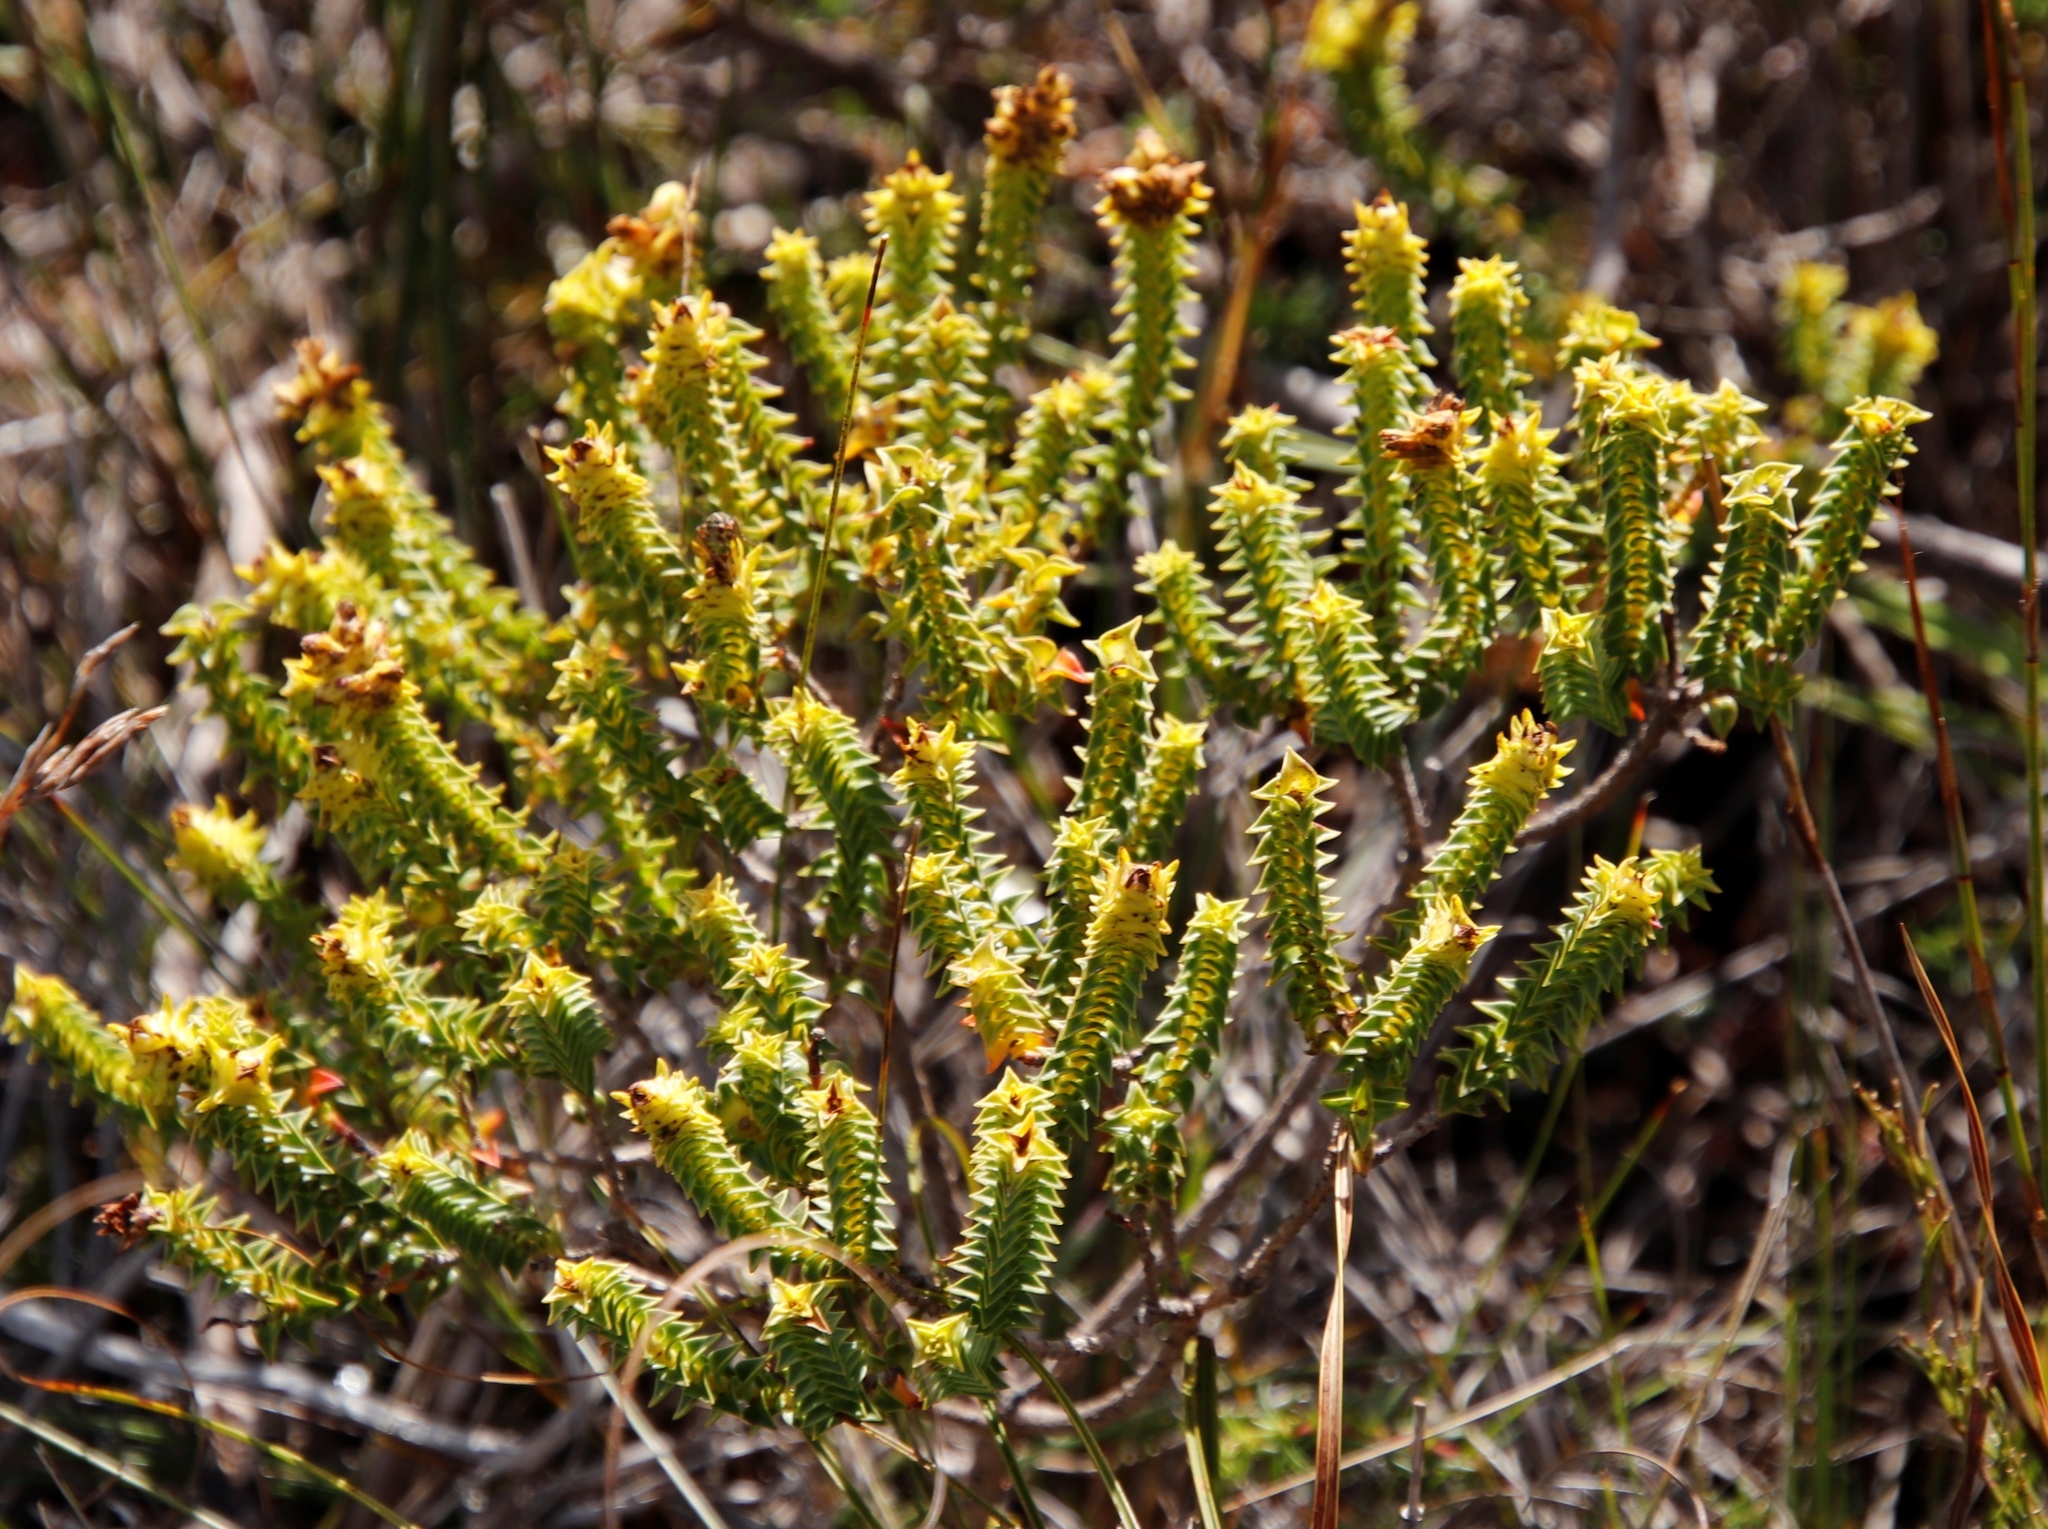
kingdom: Plantae
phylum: Tracheophyta
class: Magnoliopsida
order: Myrtales
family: Penaeaceae
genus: Penaea
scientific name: Penaea mucronata
